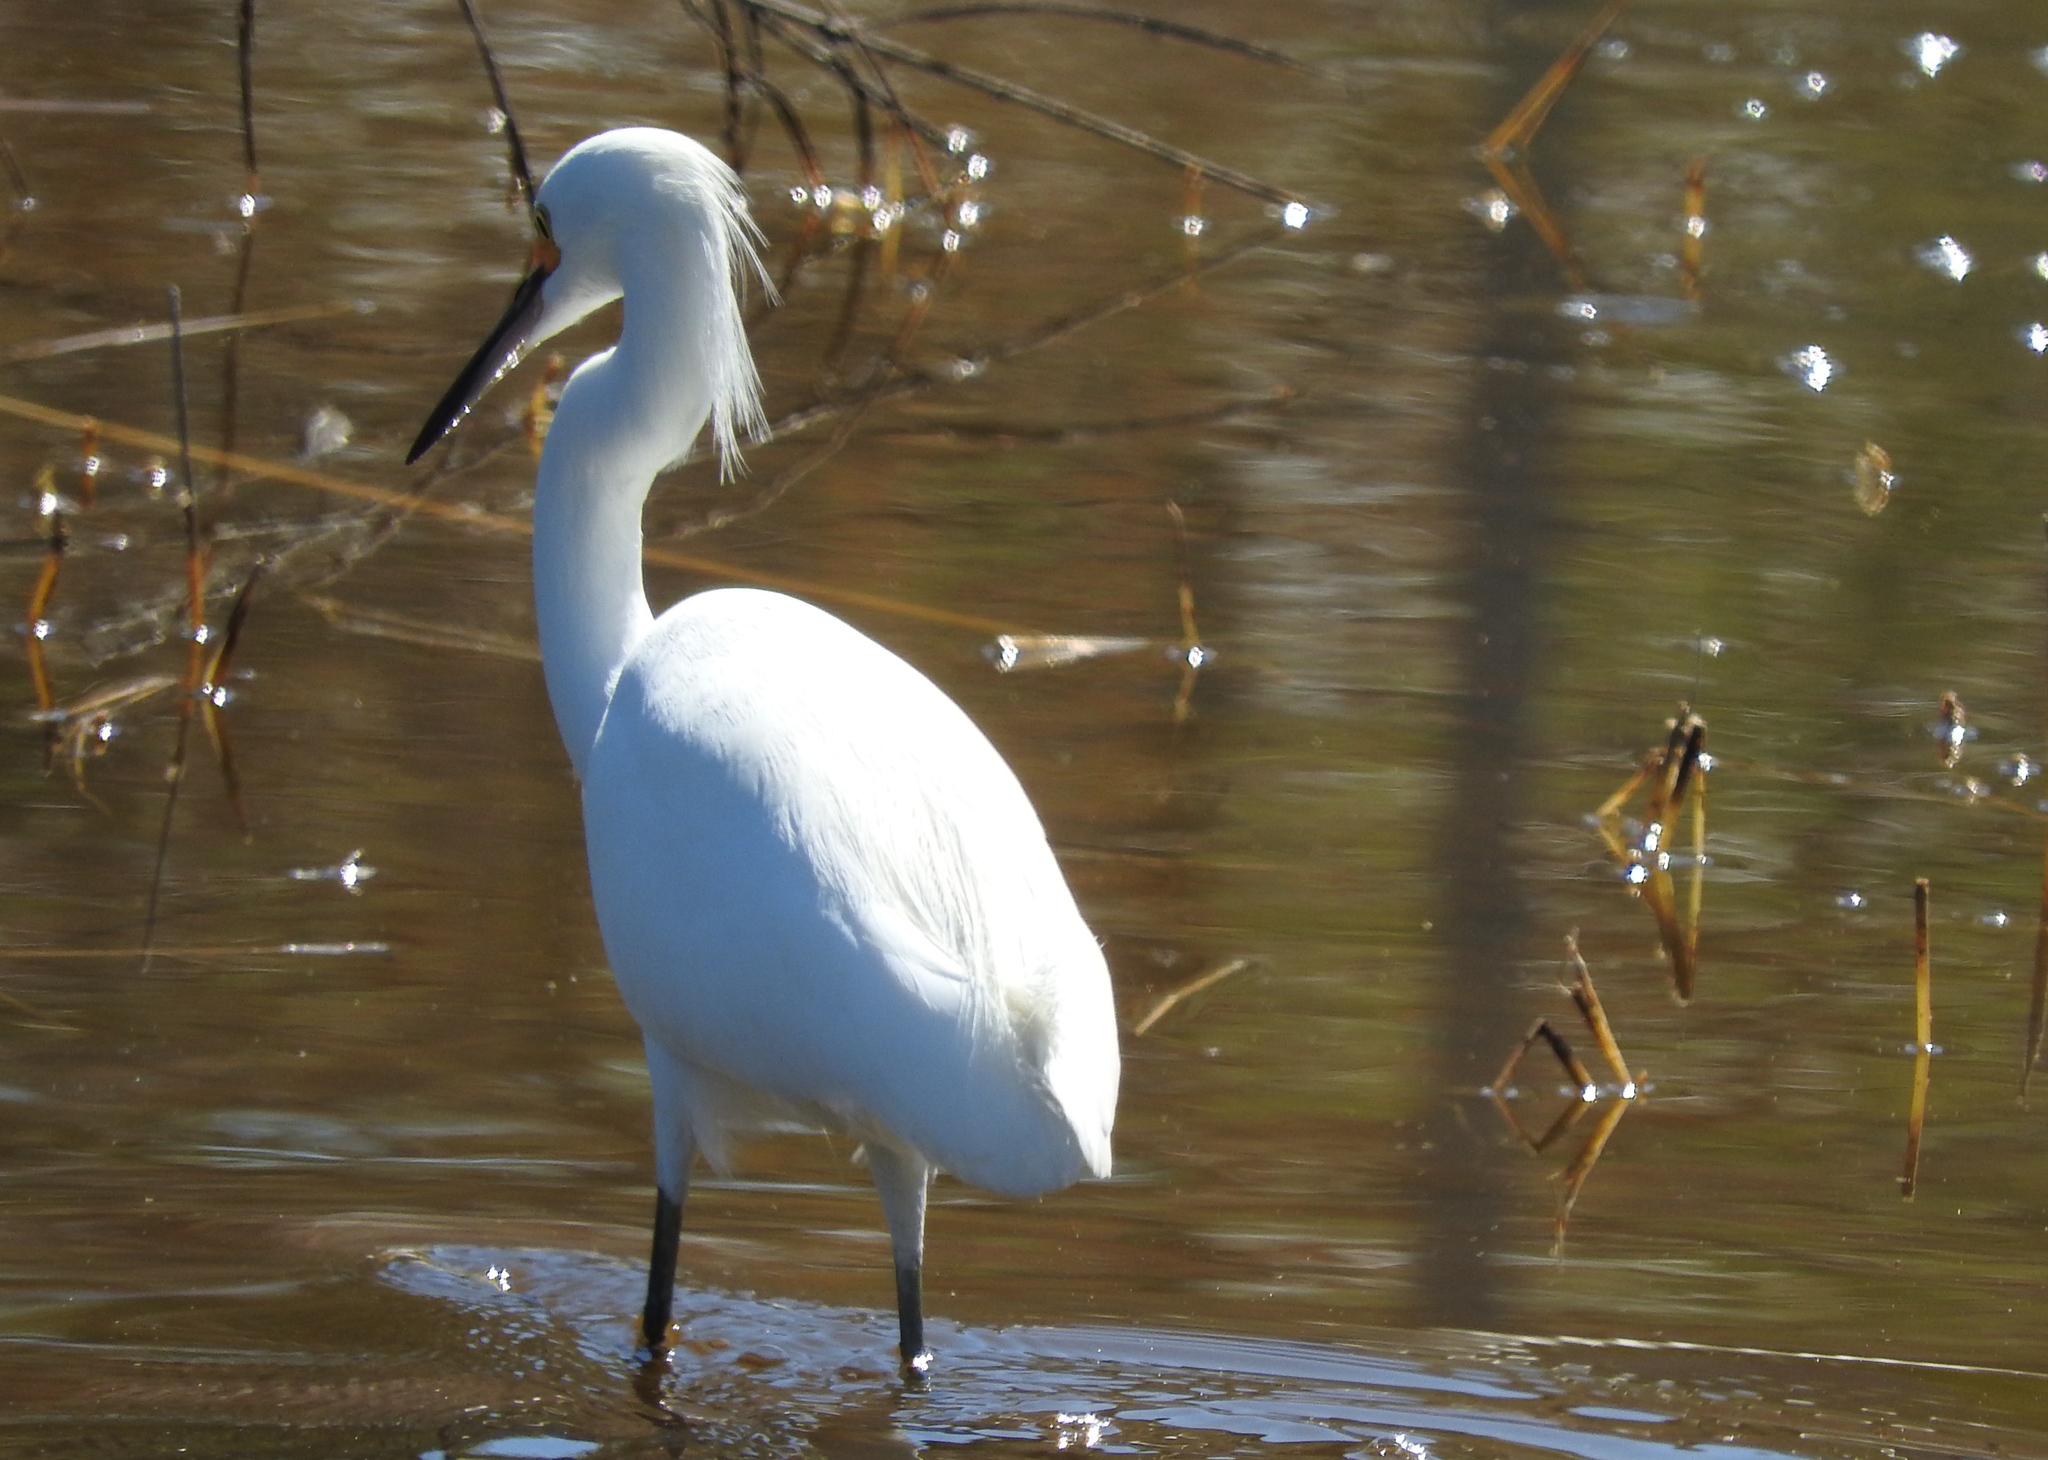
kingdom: Animalia
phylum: Chordata
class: Aves
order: Pelecaniformes
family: Ardeidae
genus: Egretta
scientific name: Egretta thula
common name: Snowy egret
